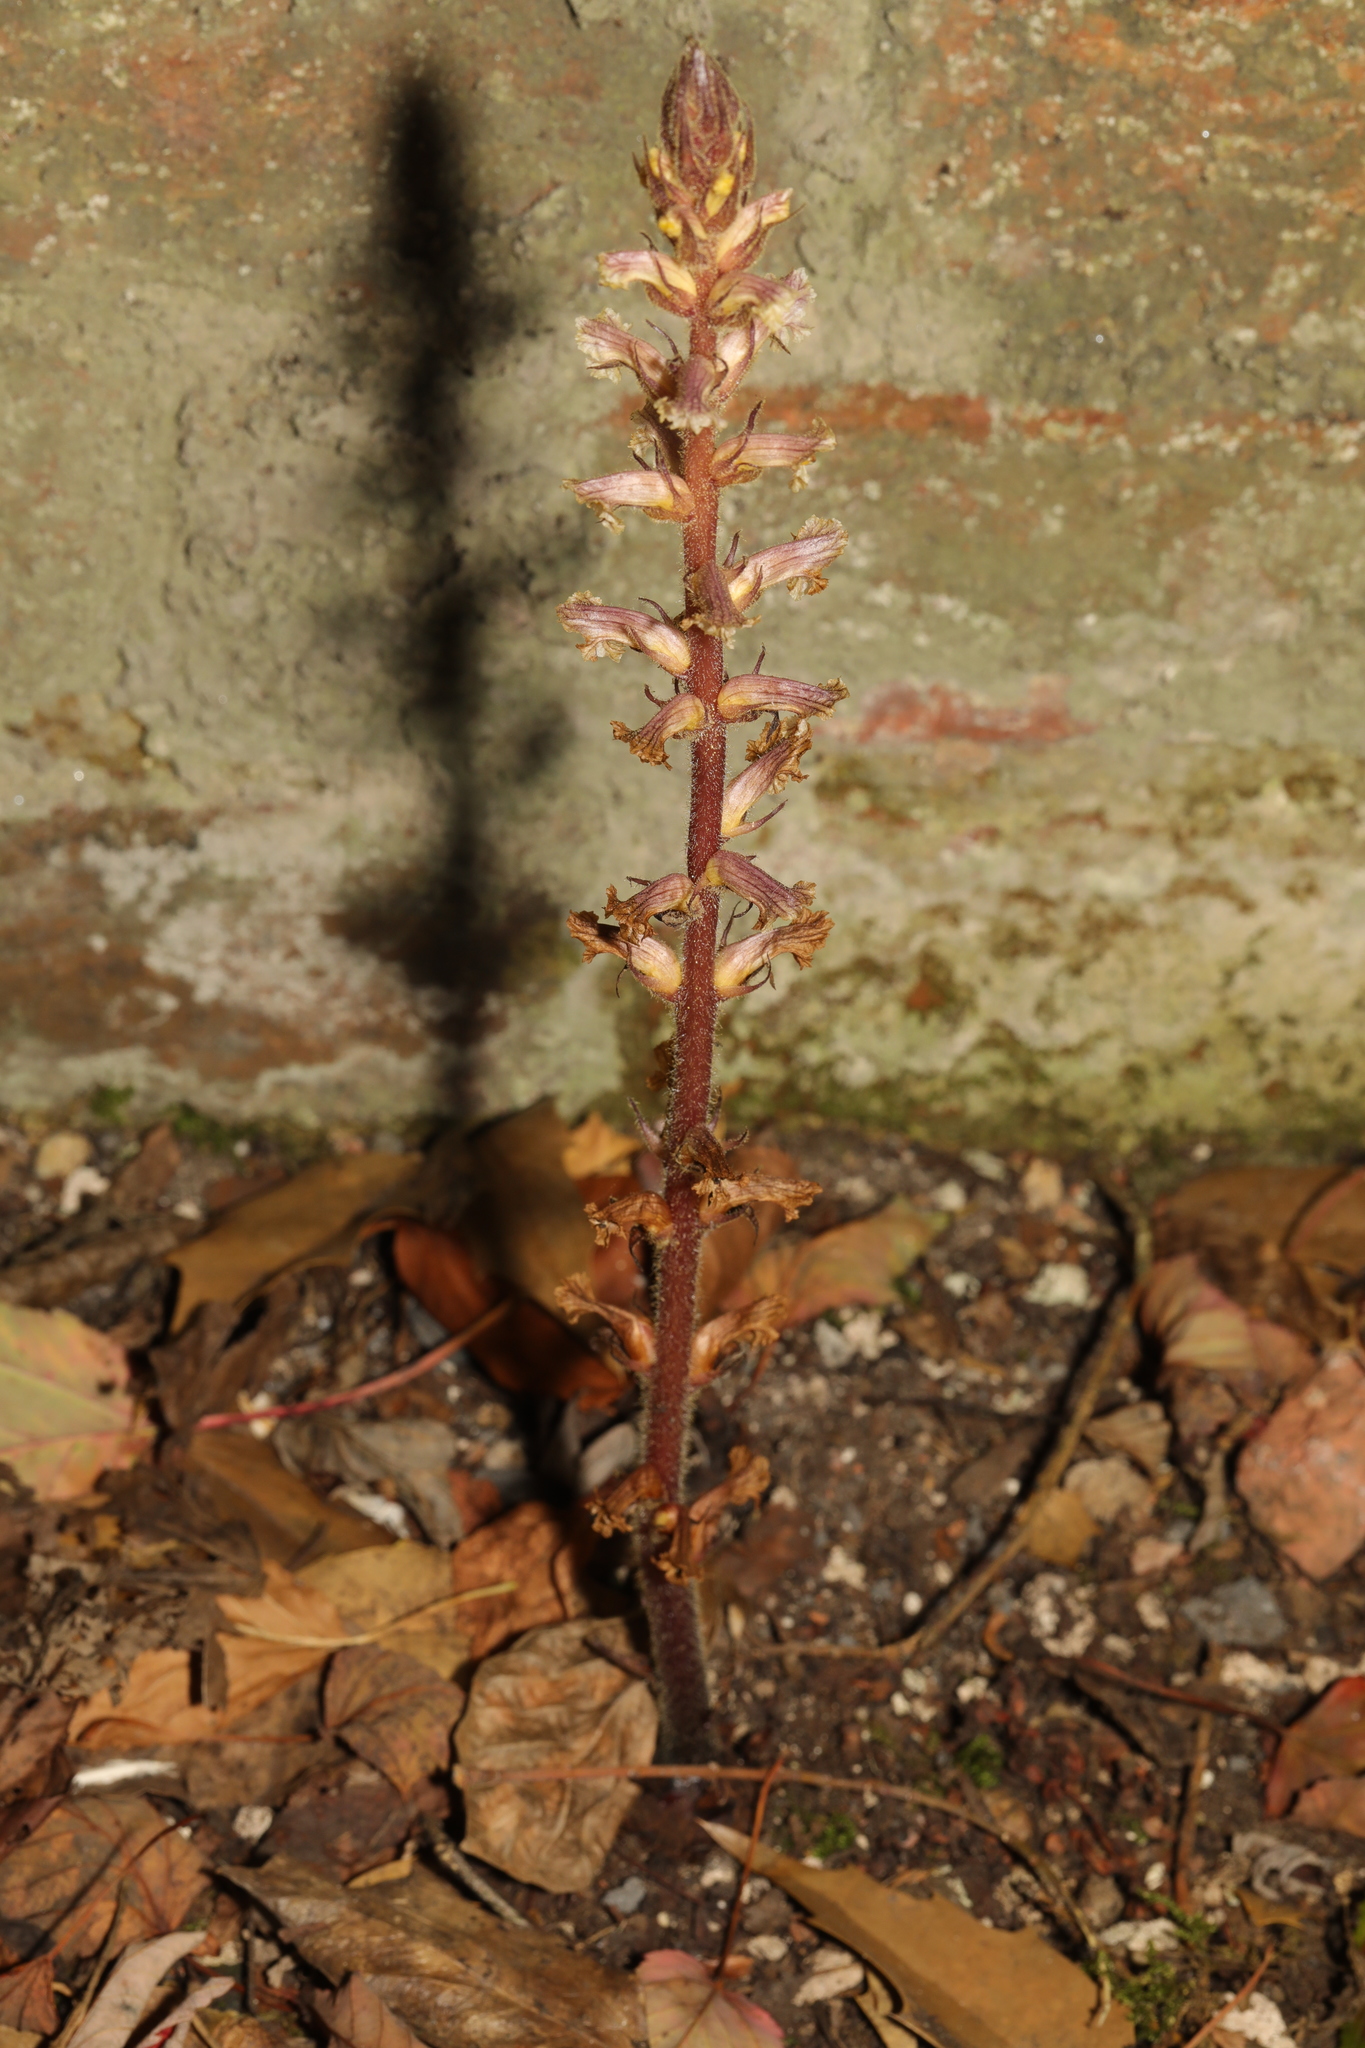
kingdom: Plantae
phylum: Tracheophyta
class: Magnoliopsida
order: Lamiales
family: Orobanchaceae
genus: Orobanche
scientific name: Orobanche hederae
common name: Ivy broomrape
